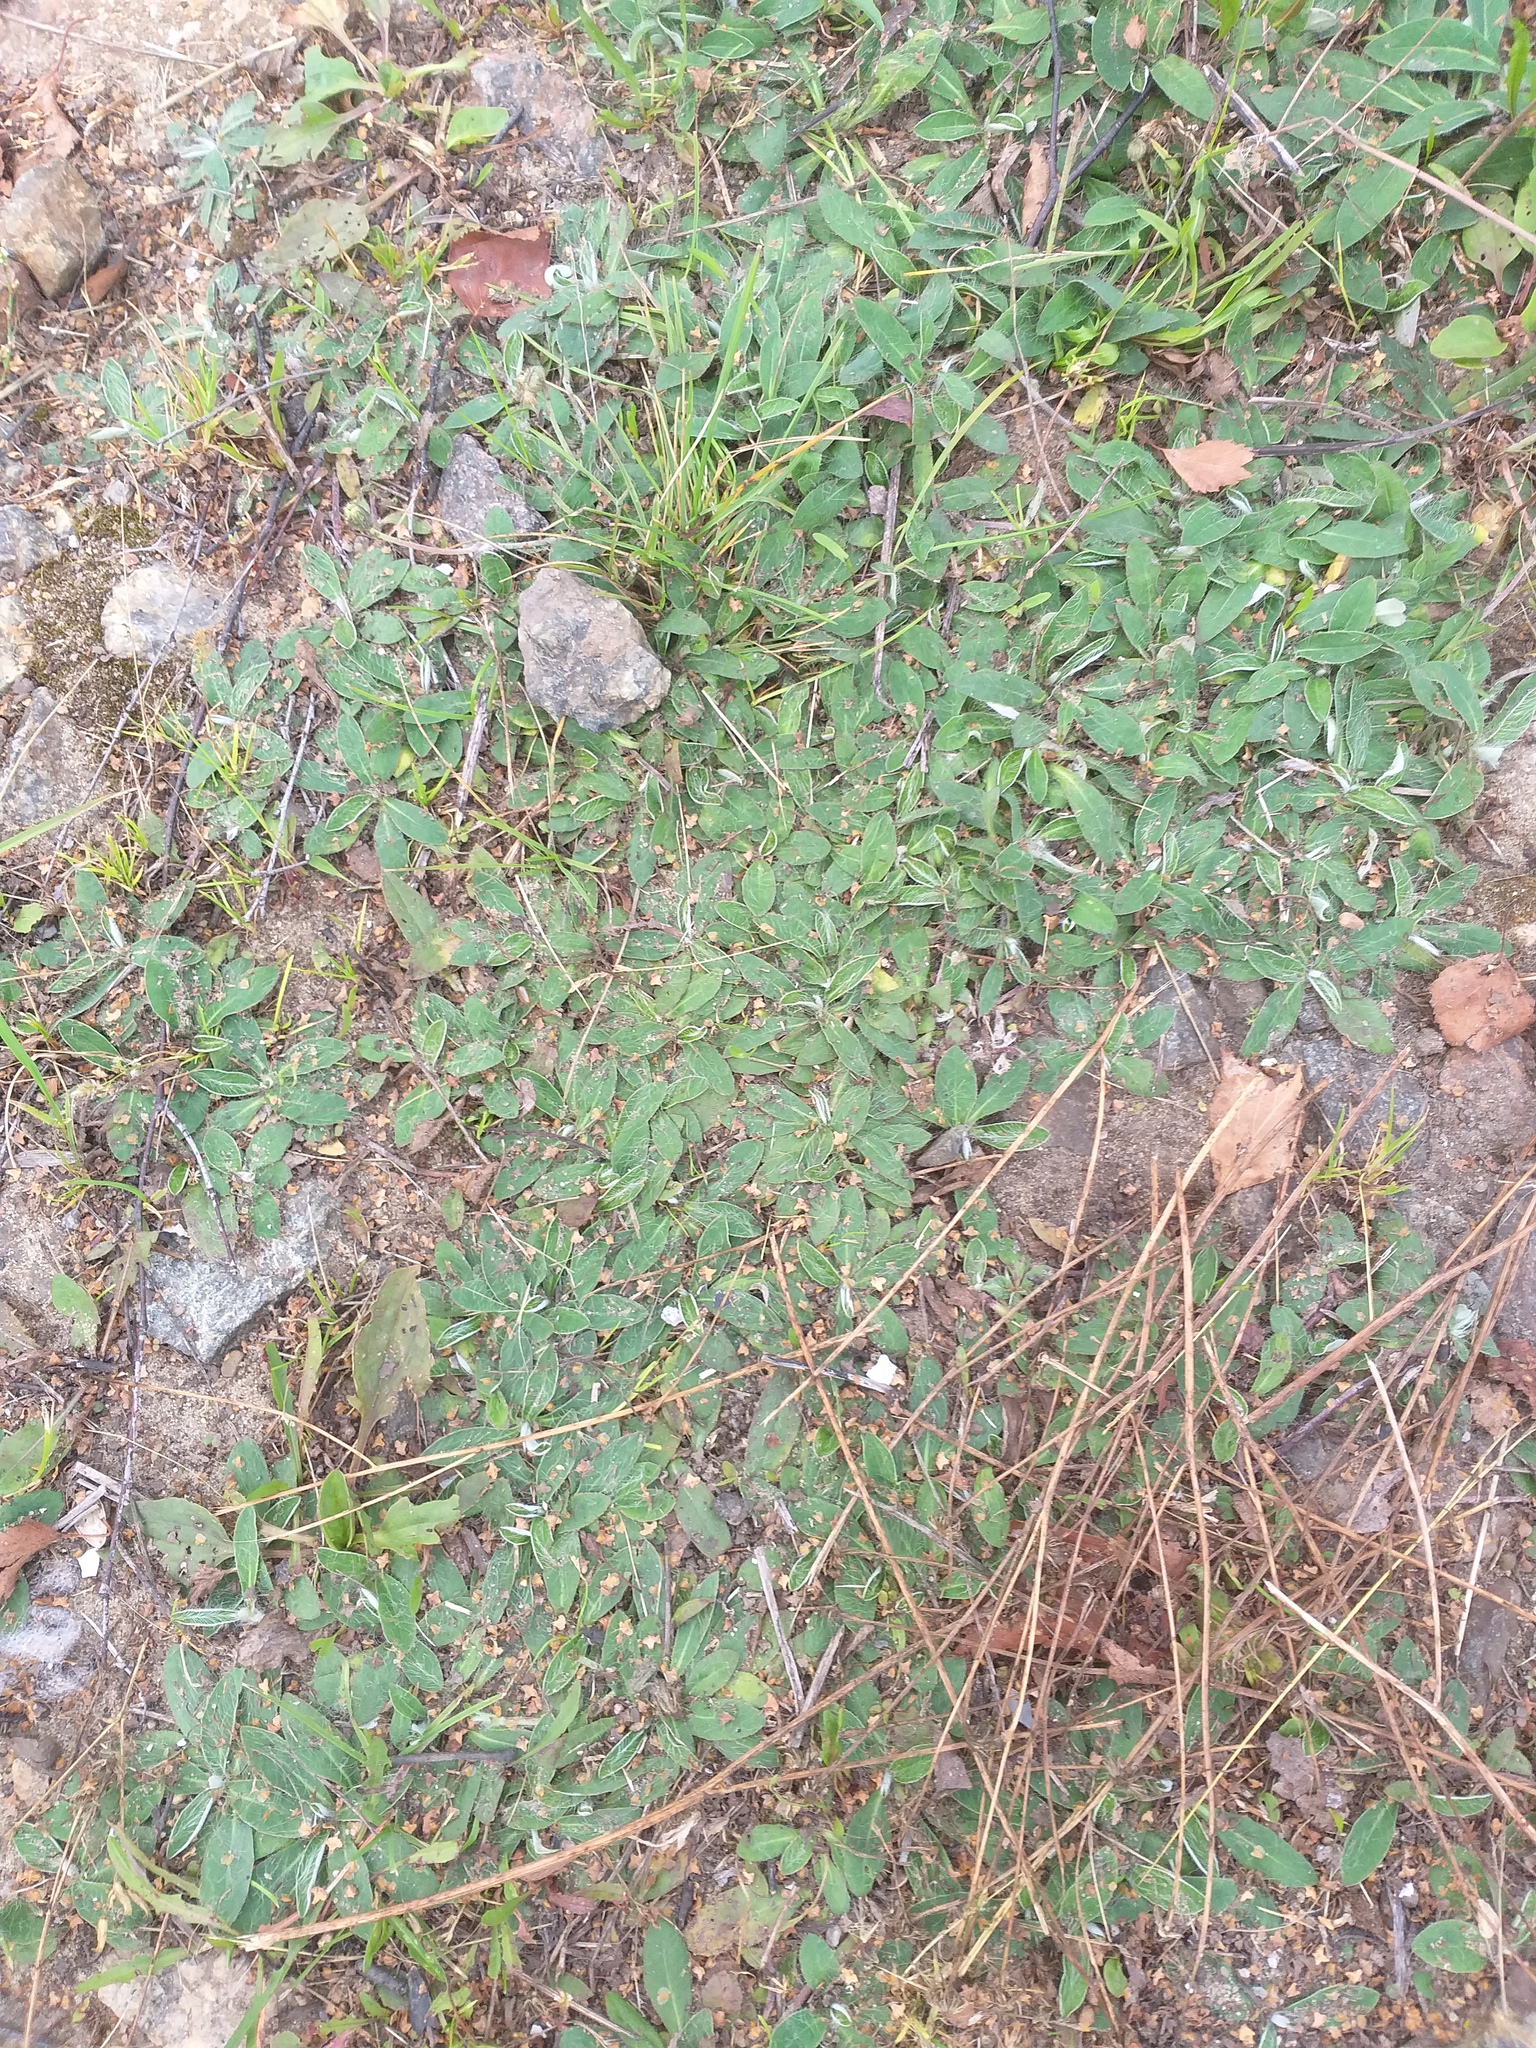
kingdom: Plantae
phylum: Tracheophyta
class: Magnoliopsida
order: Asterales
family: Asteraceae
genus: Pilosella
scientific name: Pilosella officinarum
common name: Mouse-ear hawkweed
